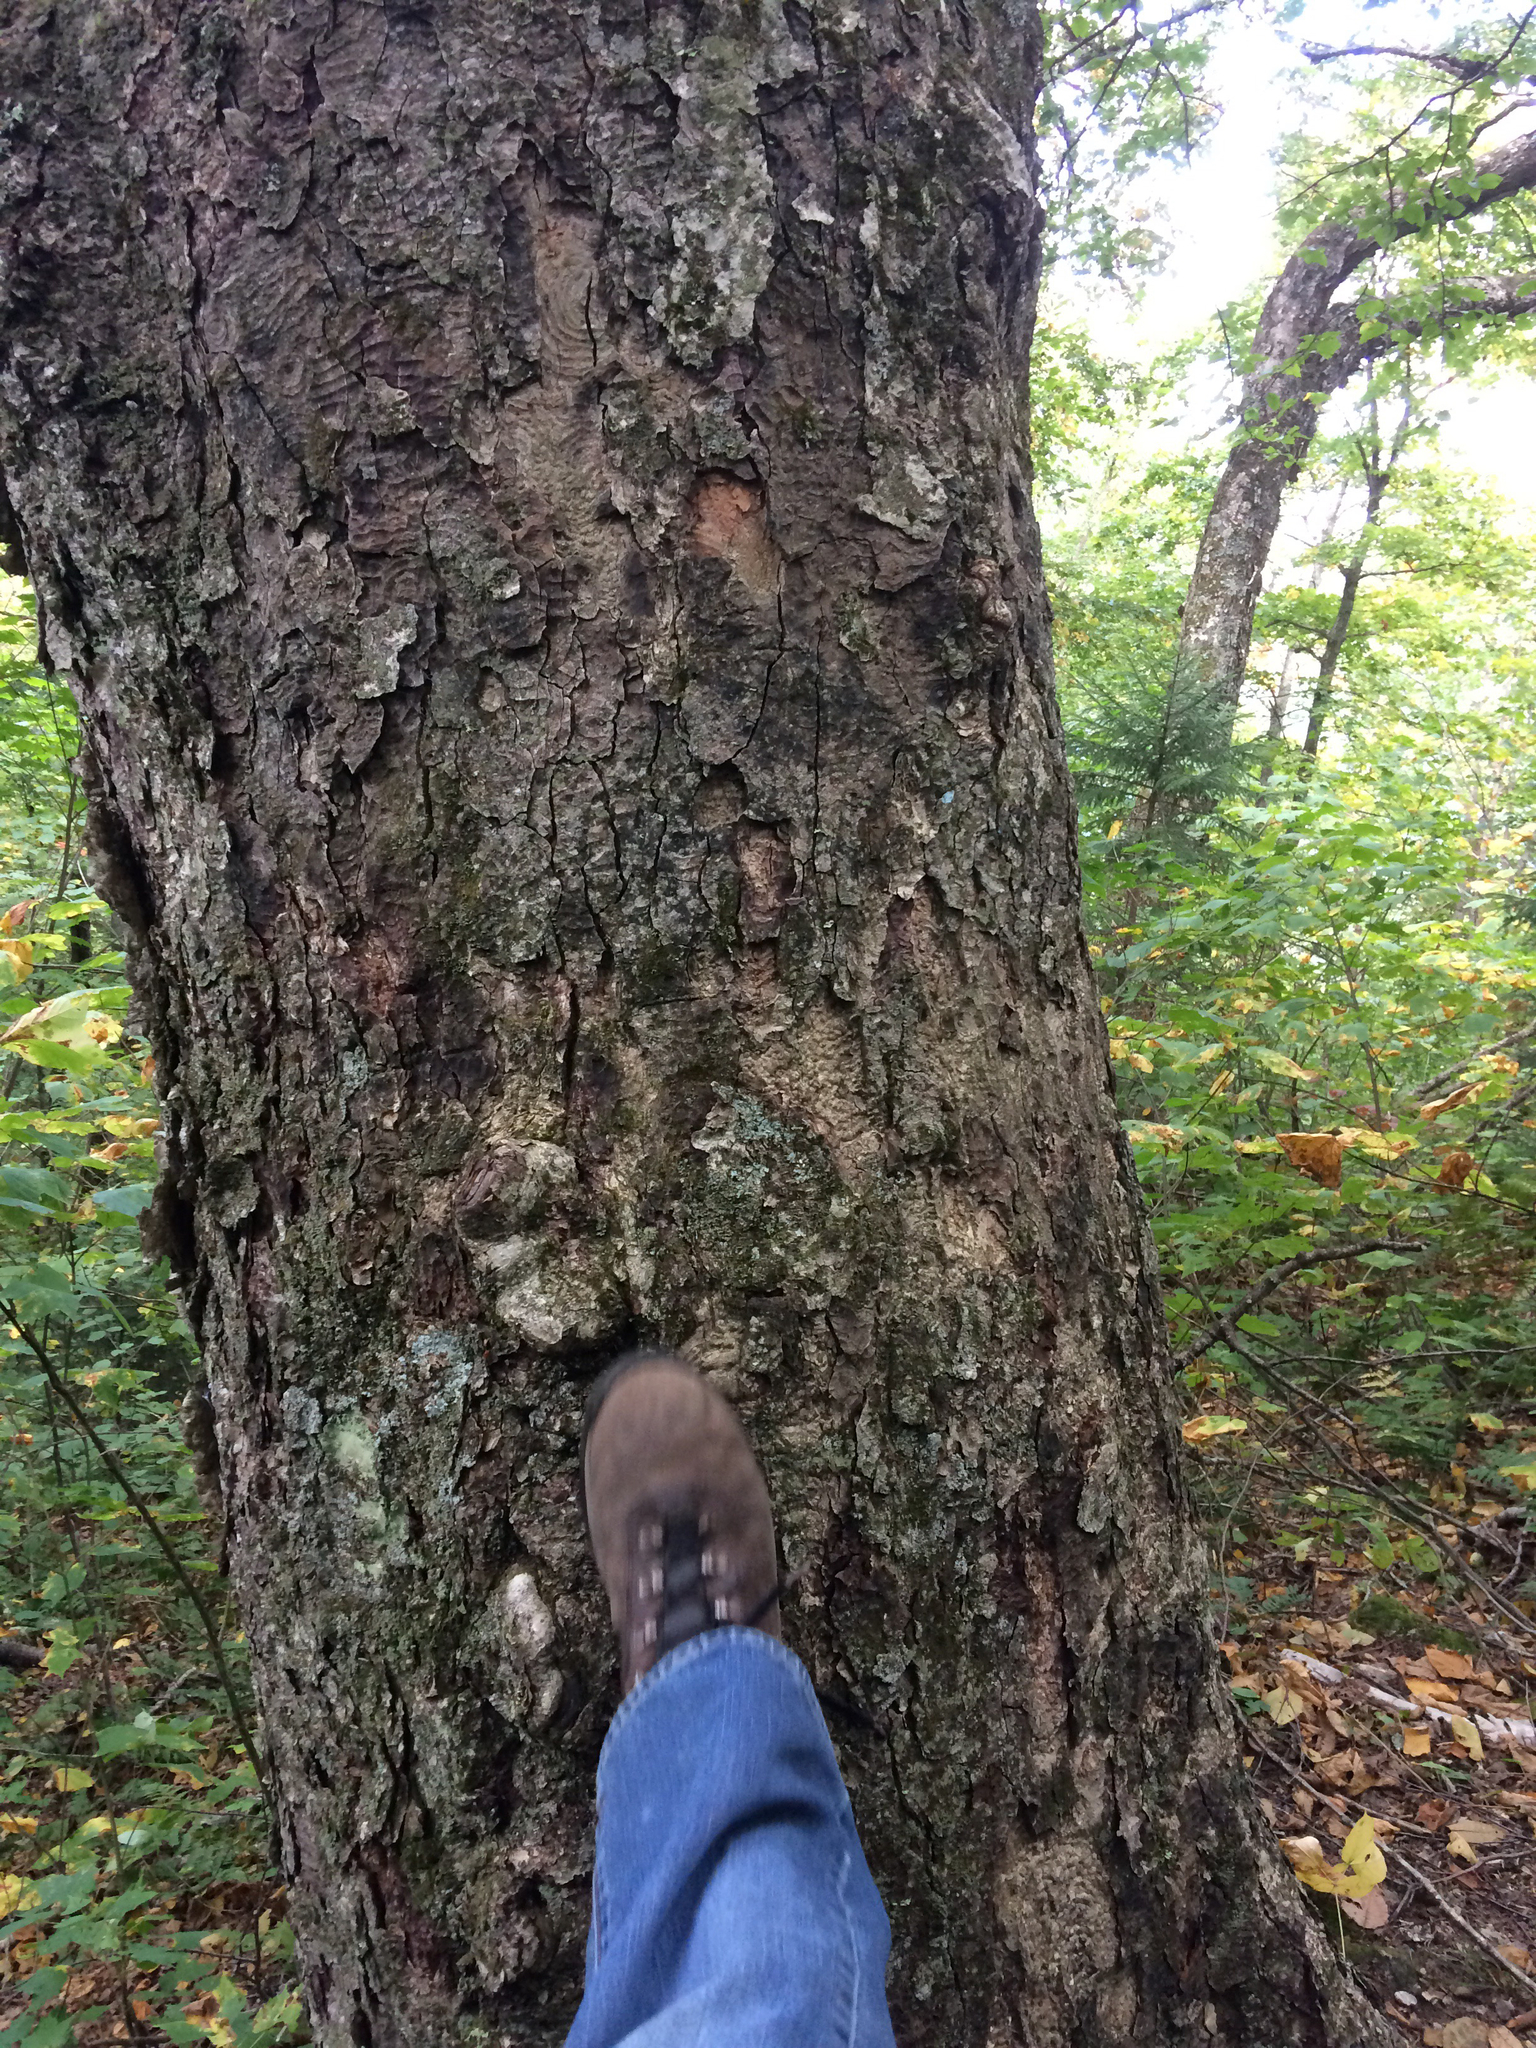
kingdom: Plantae
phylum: Tracheophyta
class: Magnoliopsida
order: Fagales
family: Betulaceae
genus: Betula
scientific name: Betula alleghaniensis
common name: Yellow birch
